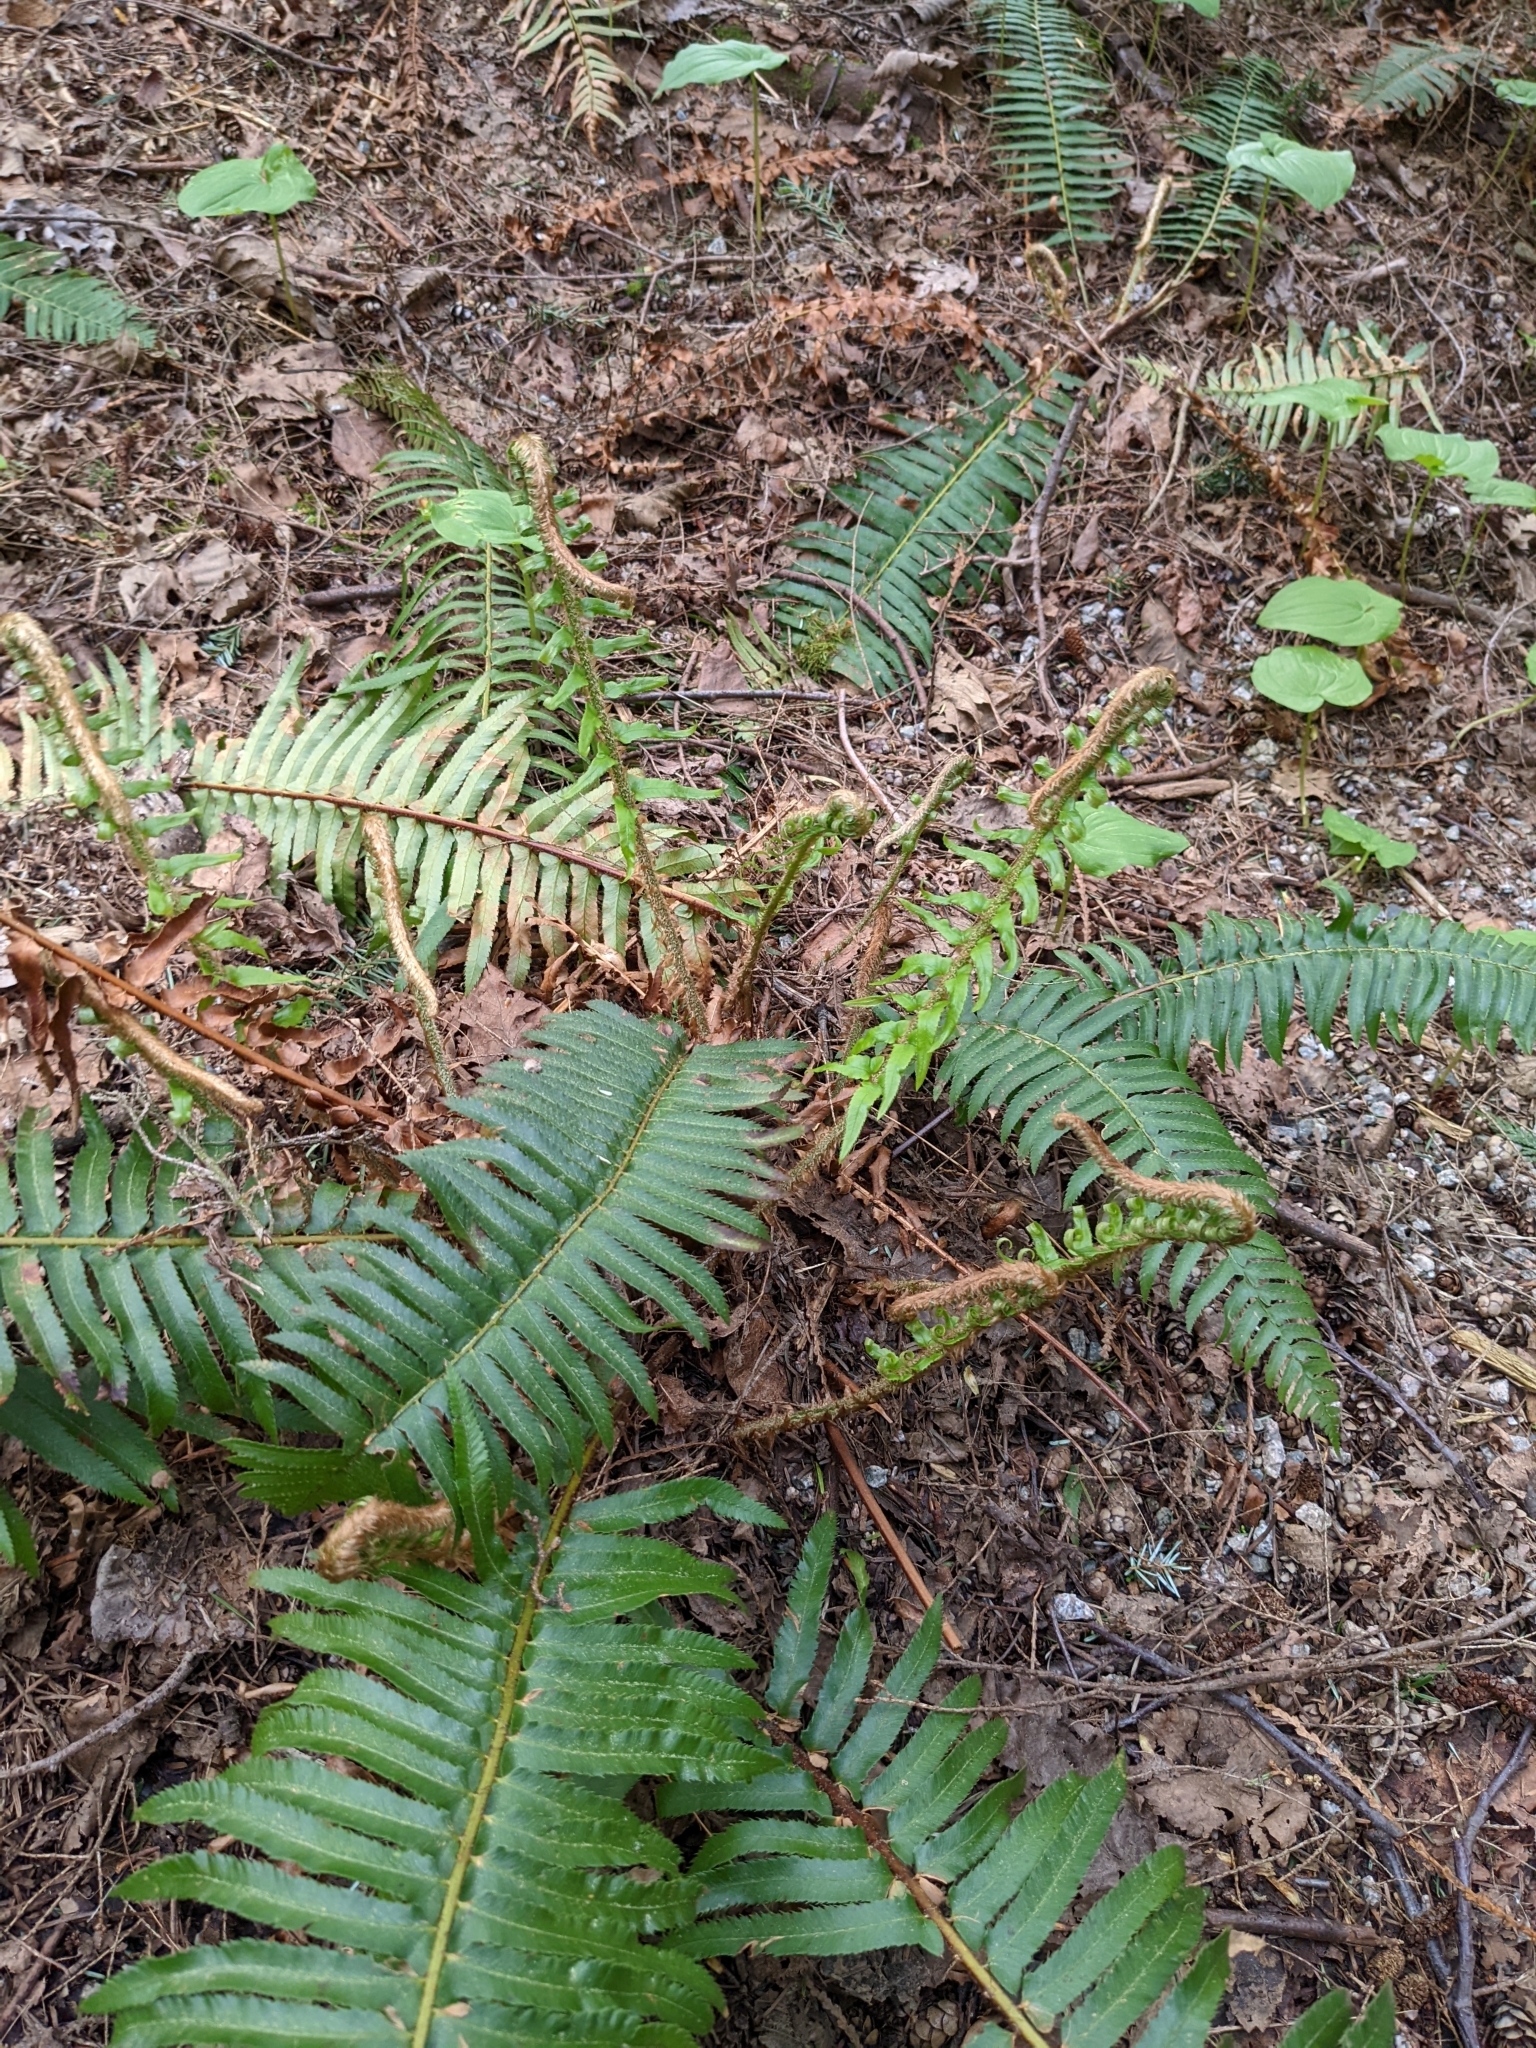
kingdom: Plantae
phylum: Tracheophyta
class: Polypodiopsida
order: Polypodiales
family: Dryopteridaceae
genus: Polystichum
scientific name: Polystichum munitum
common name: Western sword-fern
